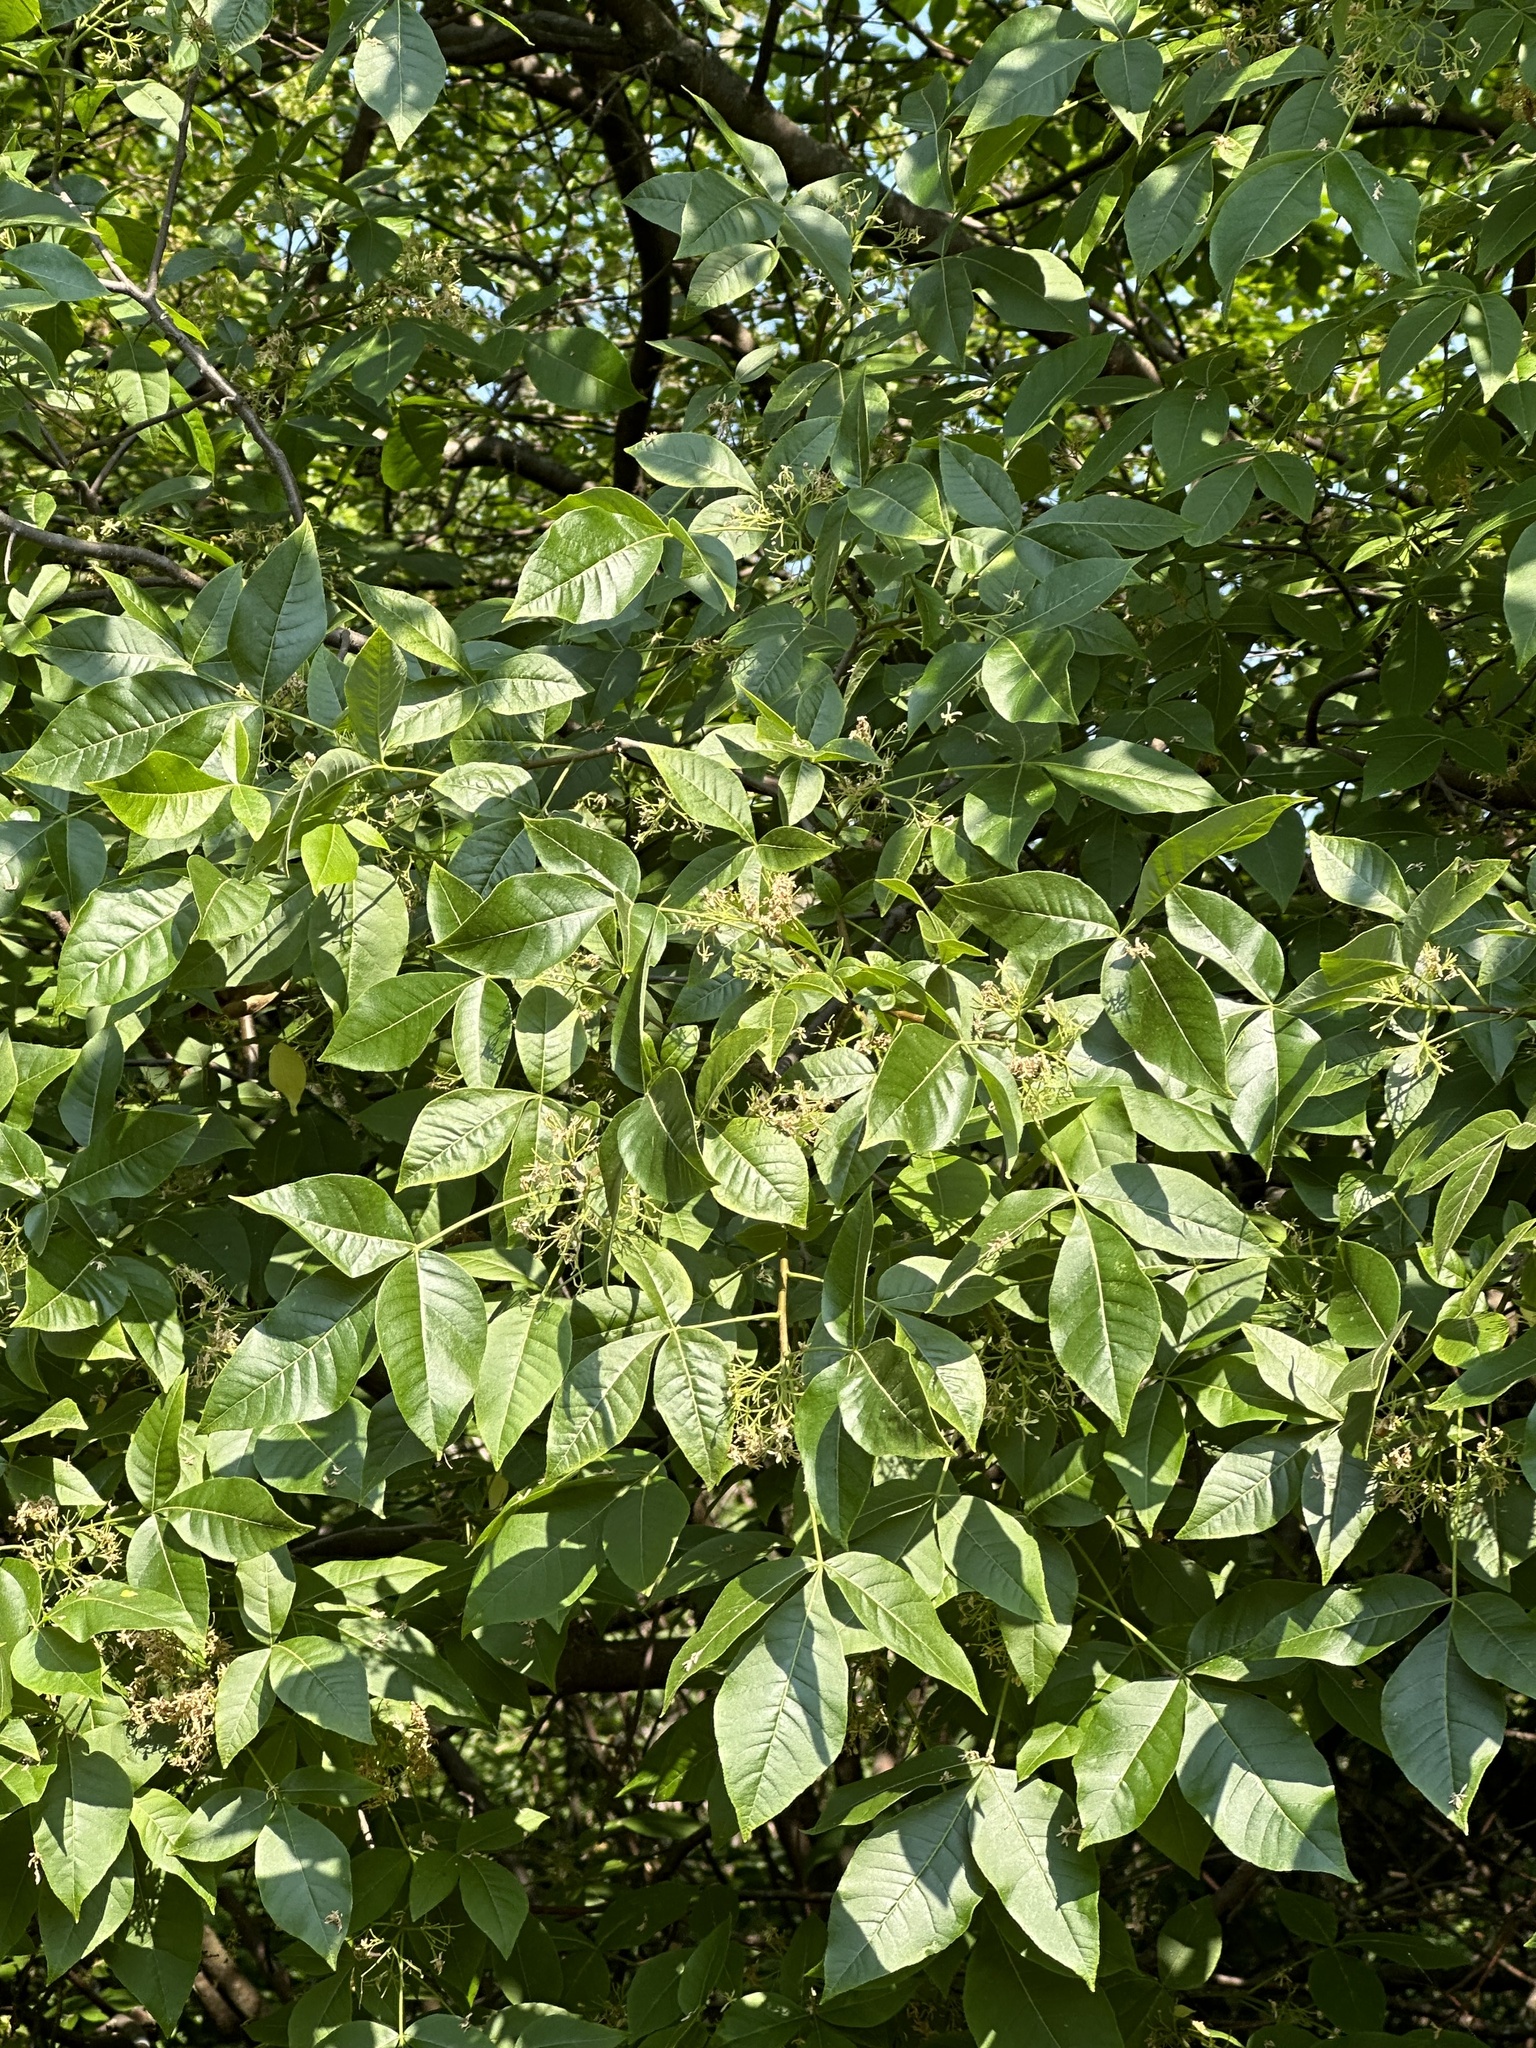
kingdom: Plantae
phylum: Tracheophyta
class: Magnoliopsida
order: Sapindales
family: Rutaceae
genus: Ptelea
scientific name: Ptelea trifoliata
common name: Common hop-tree
